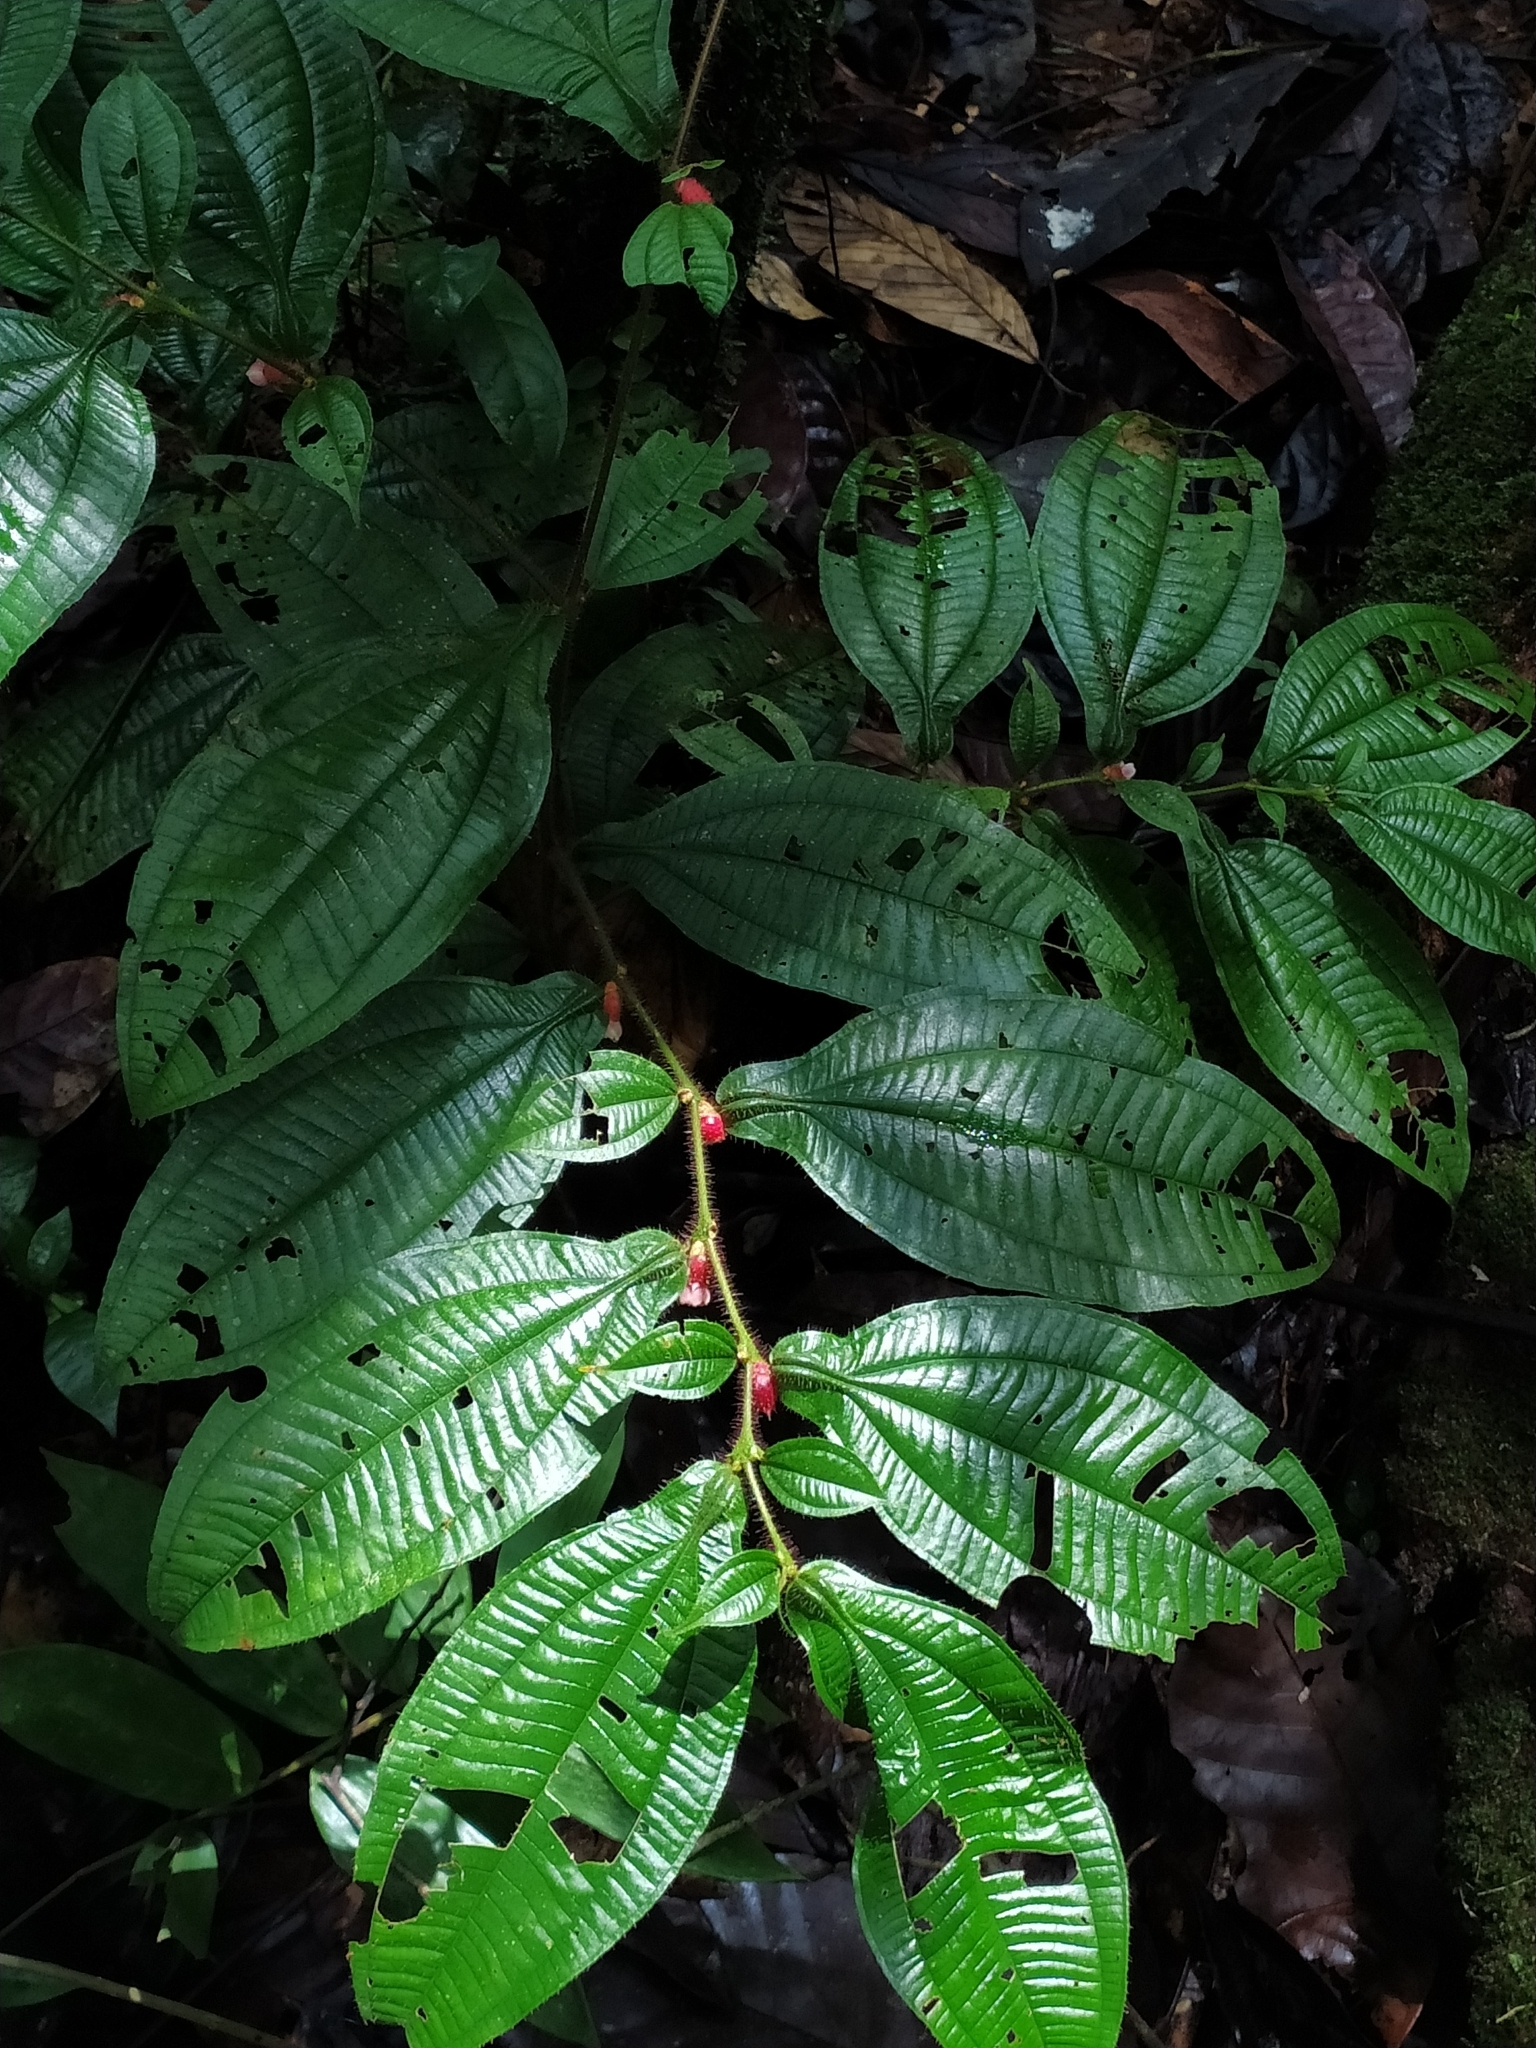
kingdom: Plantae
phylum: Tracheophyta
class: Magnoliopsida
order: Myrtales
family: Melastomataceae
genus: Miconia
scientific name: Miconia mayeta
